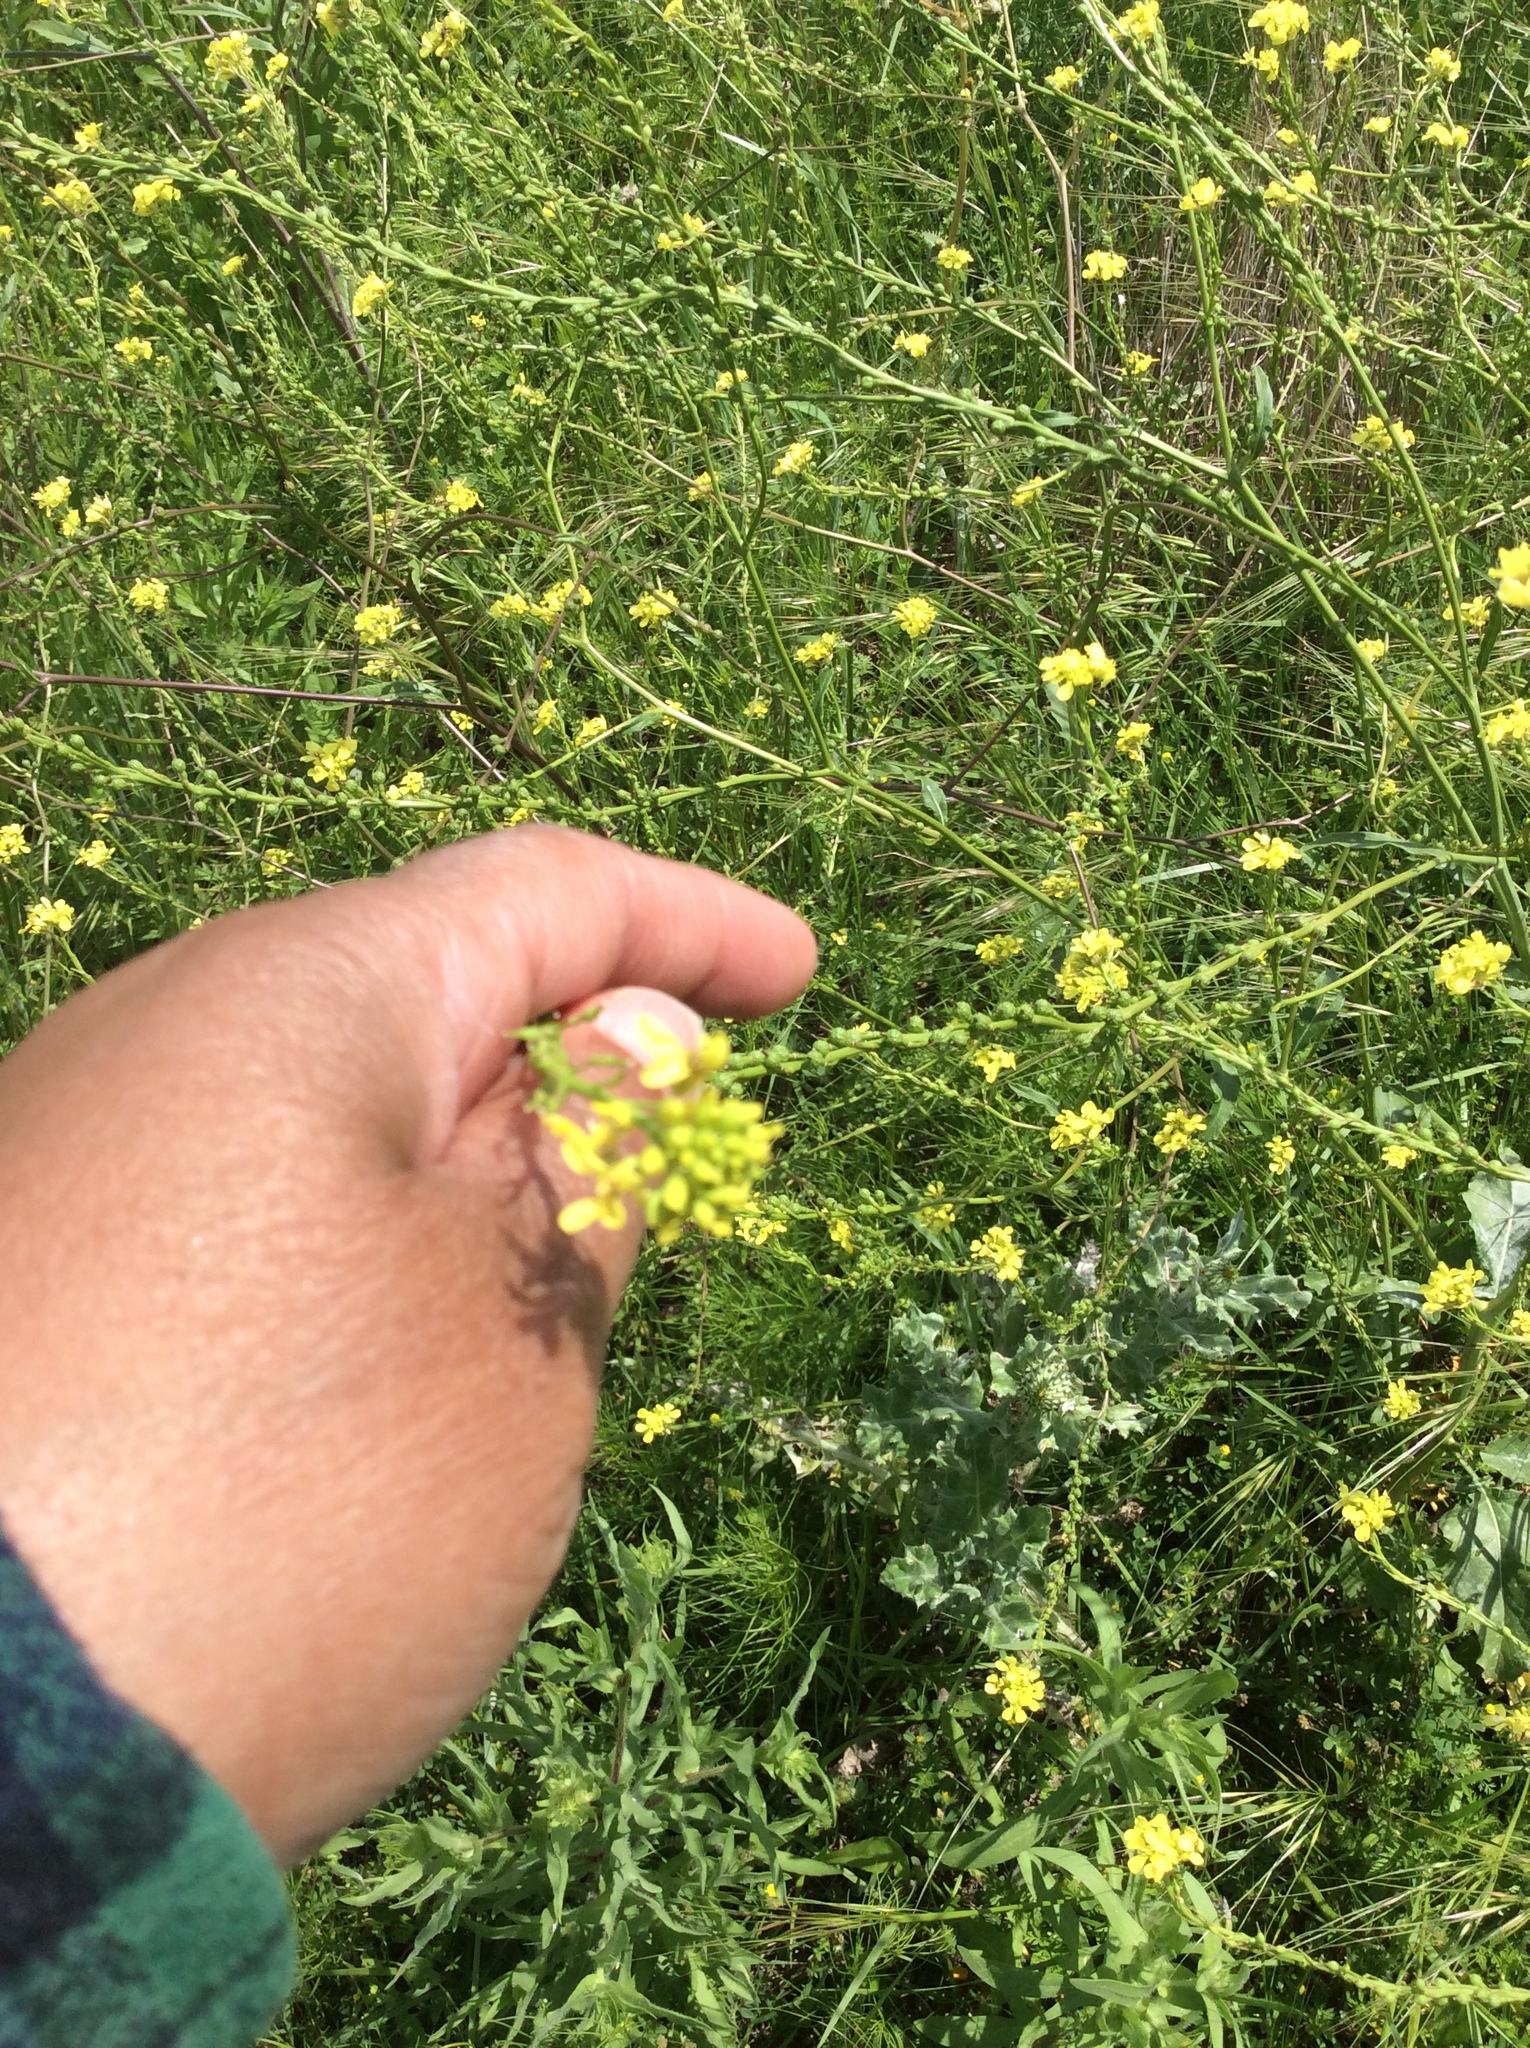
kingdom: Plantae
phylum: Tracheophyta
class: Magnoliopsida
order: Brassicales
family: Brassicaceae
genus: Rapistrum
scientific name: Rapistrum rugosum
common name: Annual bastardcabbage
